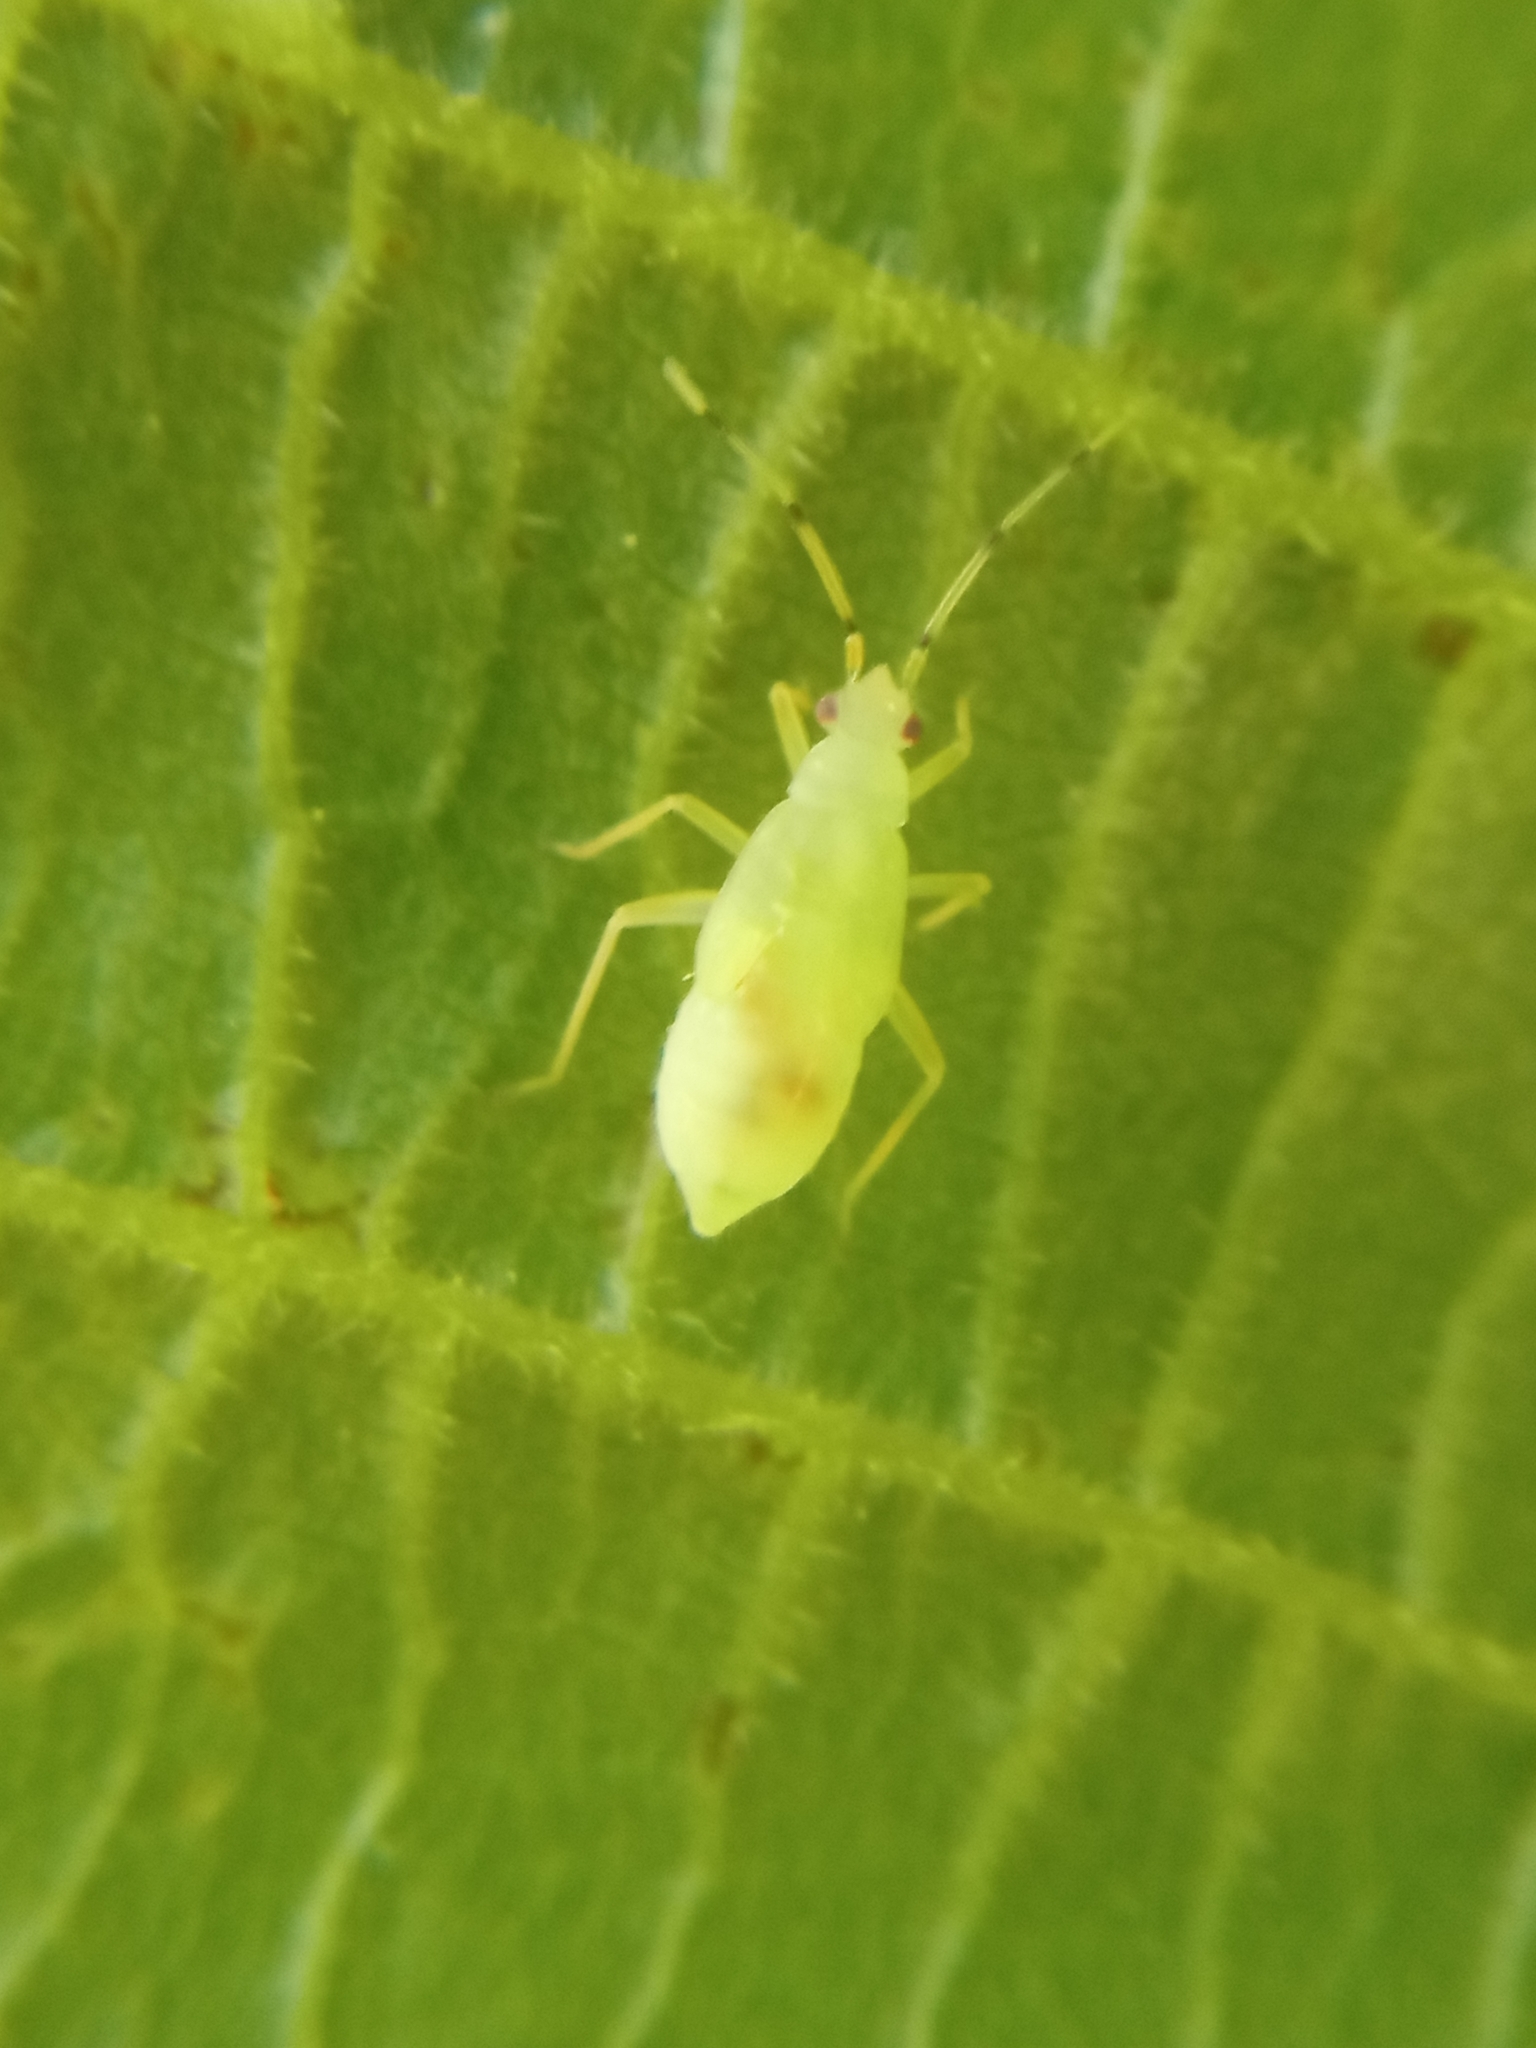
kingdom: Animalia
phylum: Arthropoda
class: Insecta
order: Hemiptera
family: Miridae
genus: Phylus
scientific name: Phylus coryli
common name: Plant bug
